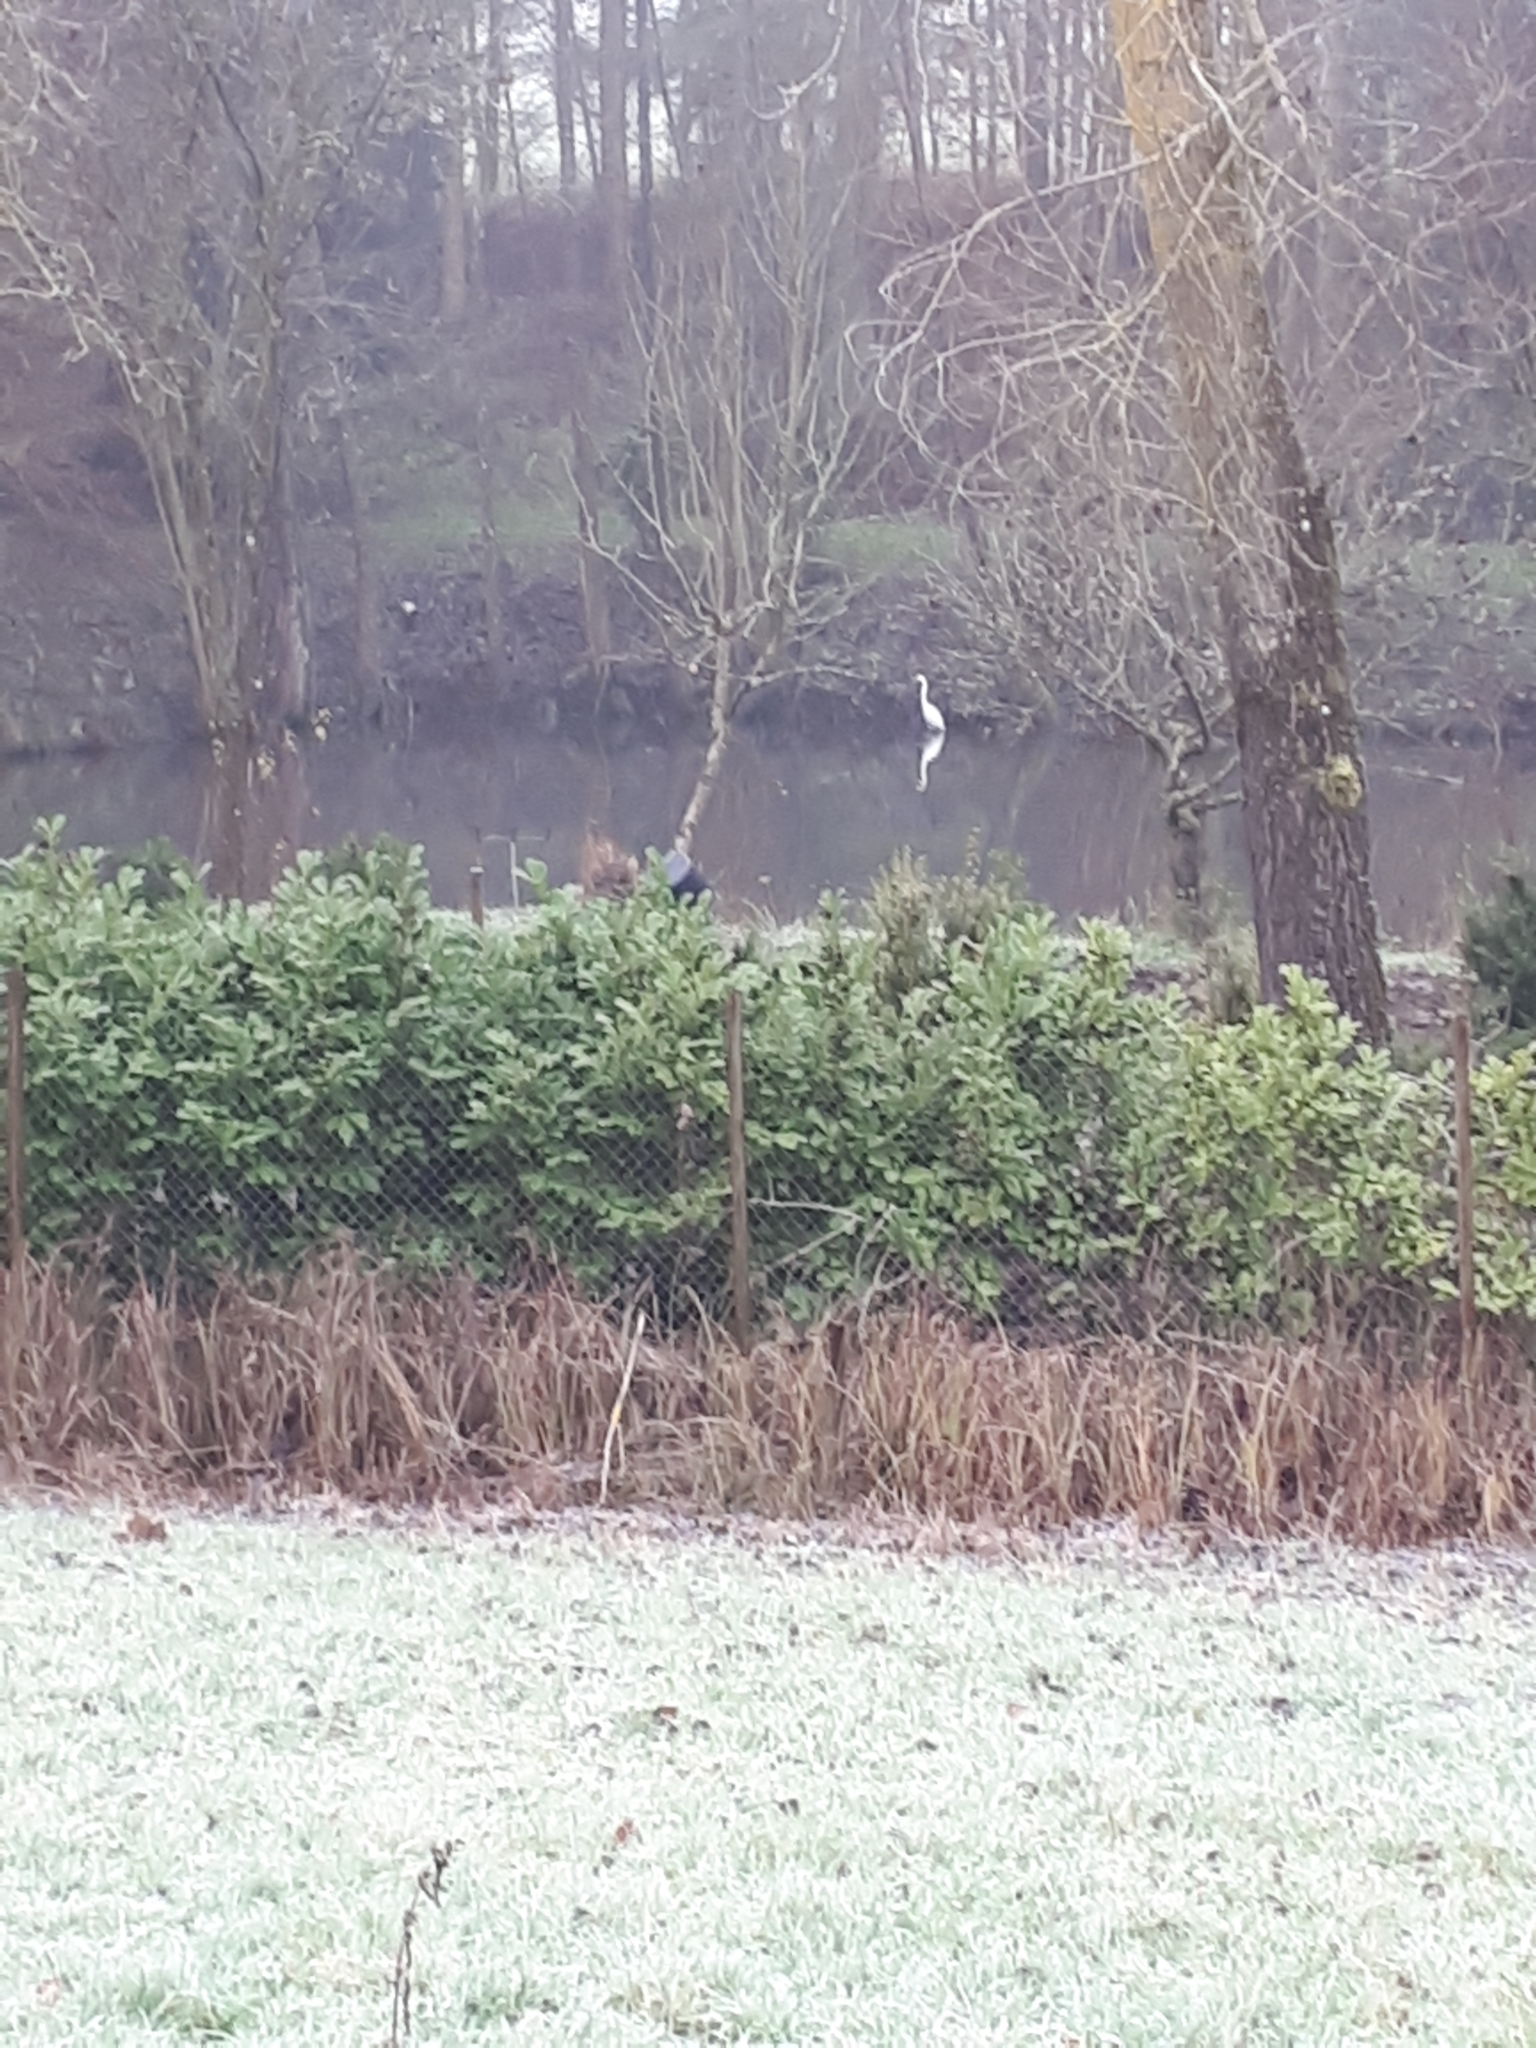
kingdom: Animalia
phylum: Chordata
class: Aves
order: Pelecaniformes
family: Ardeidae
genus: Ardea
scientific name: Ardea alba
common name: Great egret
